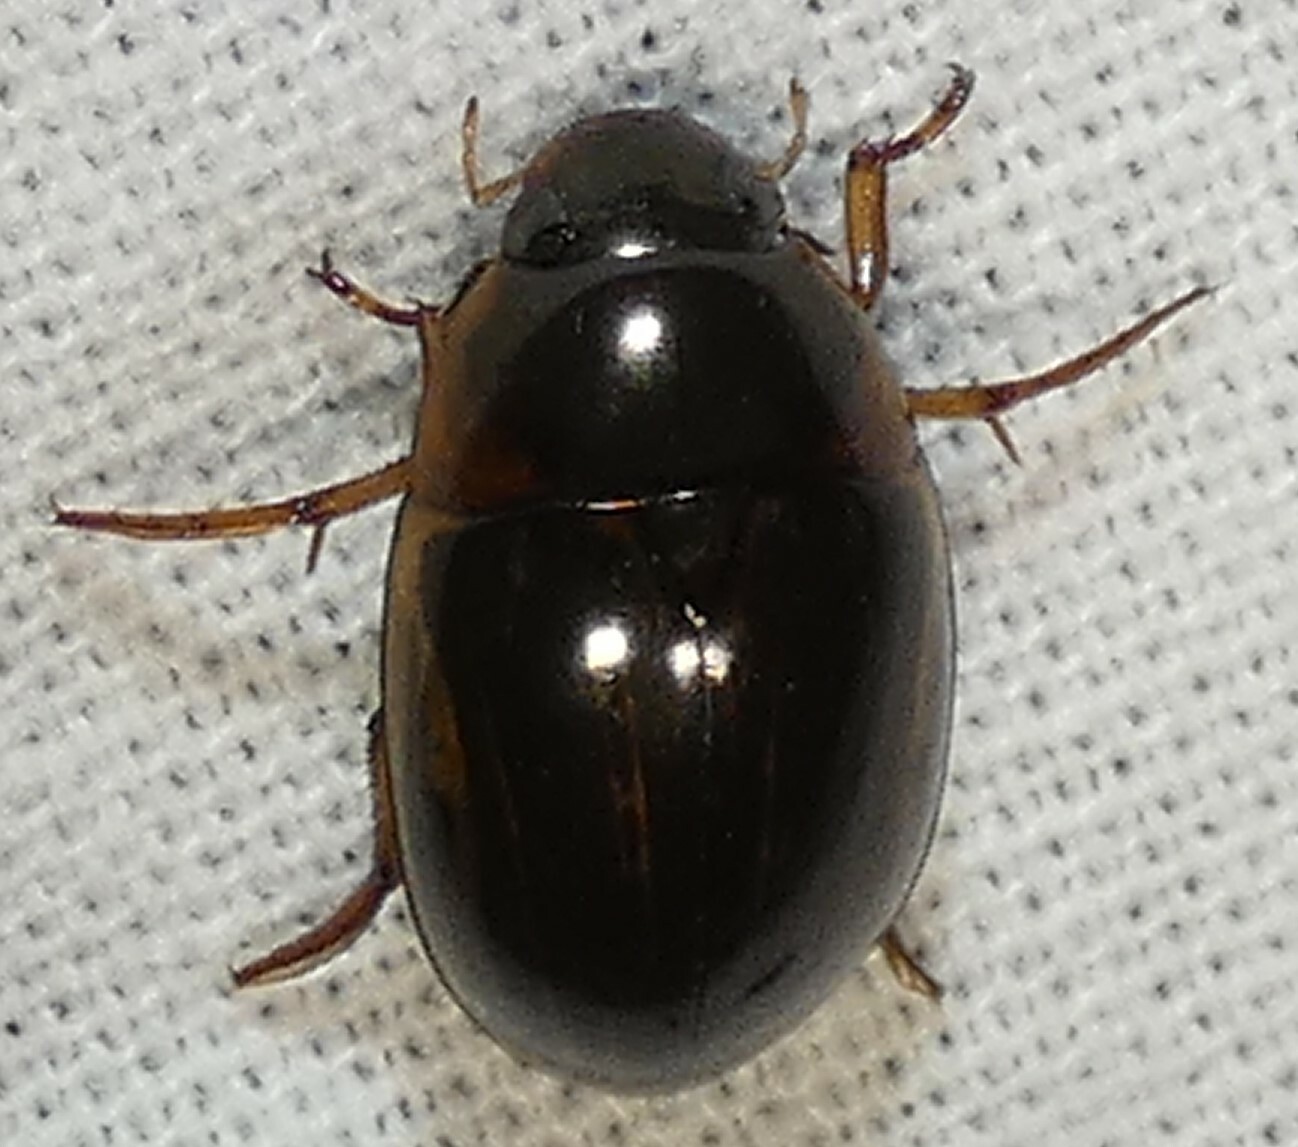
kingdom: Animalia
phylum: Arthropoda
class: Insecta
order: Coleoptera
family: Hydrophilidae
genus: Tropisternus
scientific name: Tropisternus collaris
